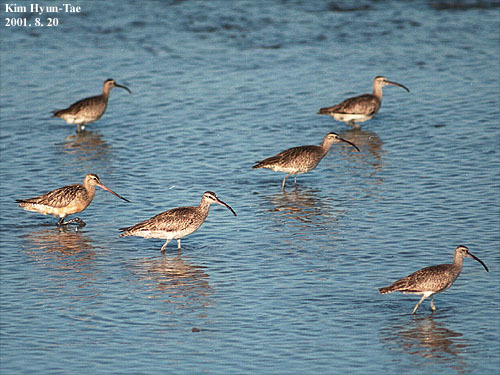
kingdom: Animalia
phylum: Chordata
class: Aves
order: Charadriiformes
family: Scolopacidae
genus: Numenius
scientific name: Numenius phaeopus
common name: Whimbrel
